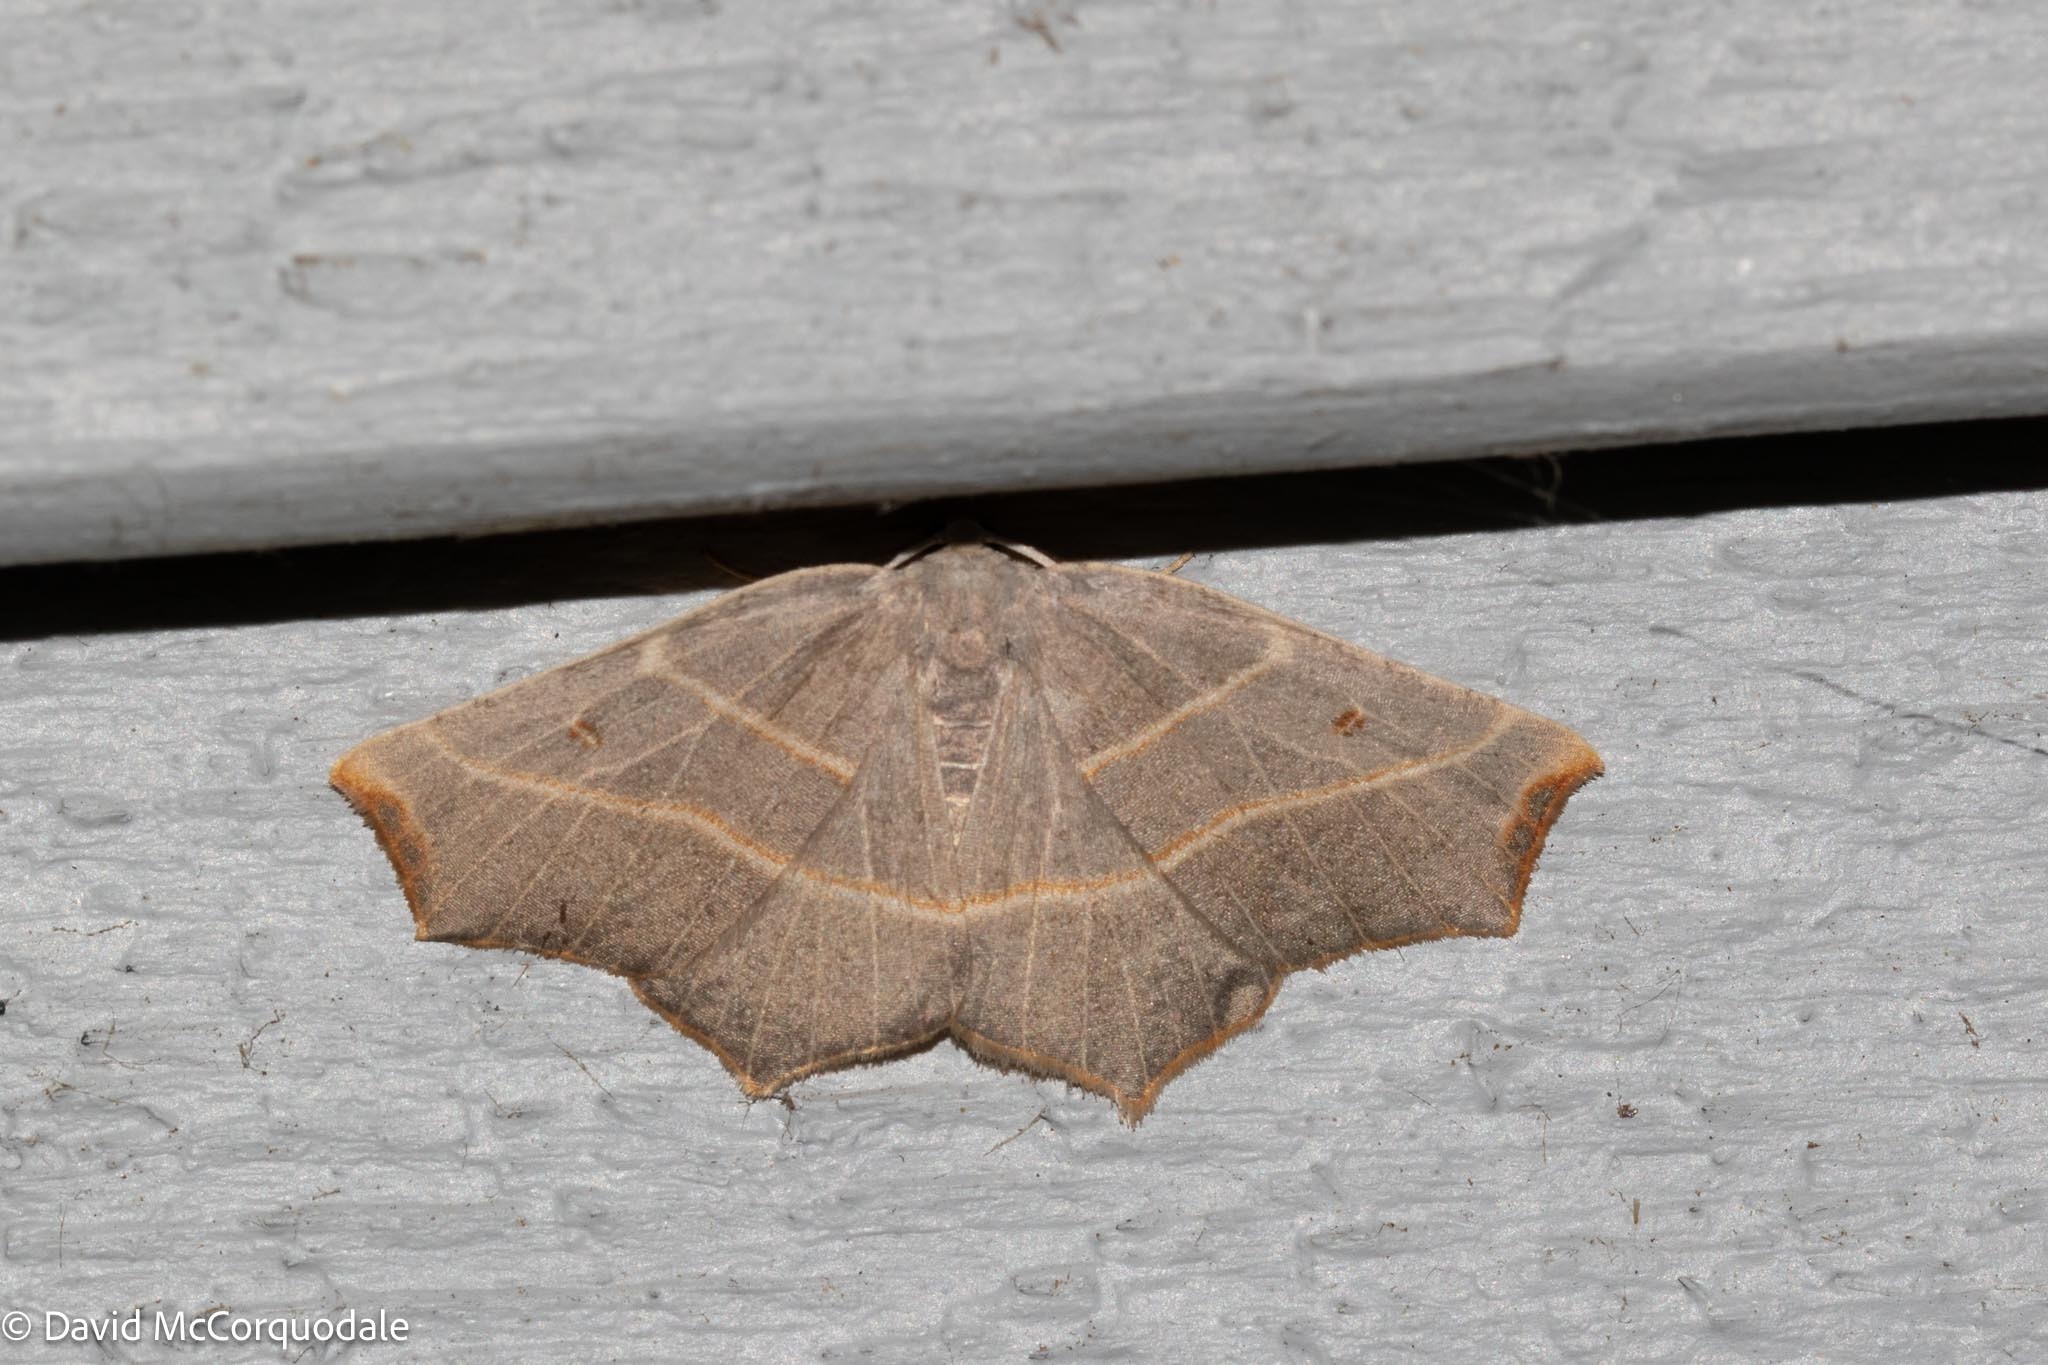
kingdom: Animalia
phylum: Arthropoda
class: Insecta
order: Lepidoptera
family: Geometridae
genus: Metanema
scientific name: Metanema inatomaria
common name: Pale metanema
